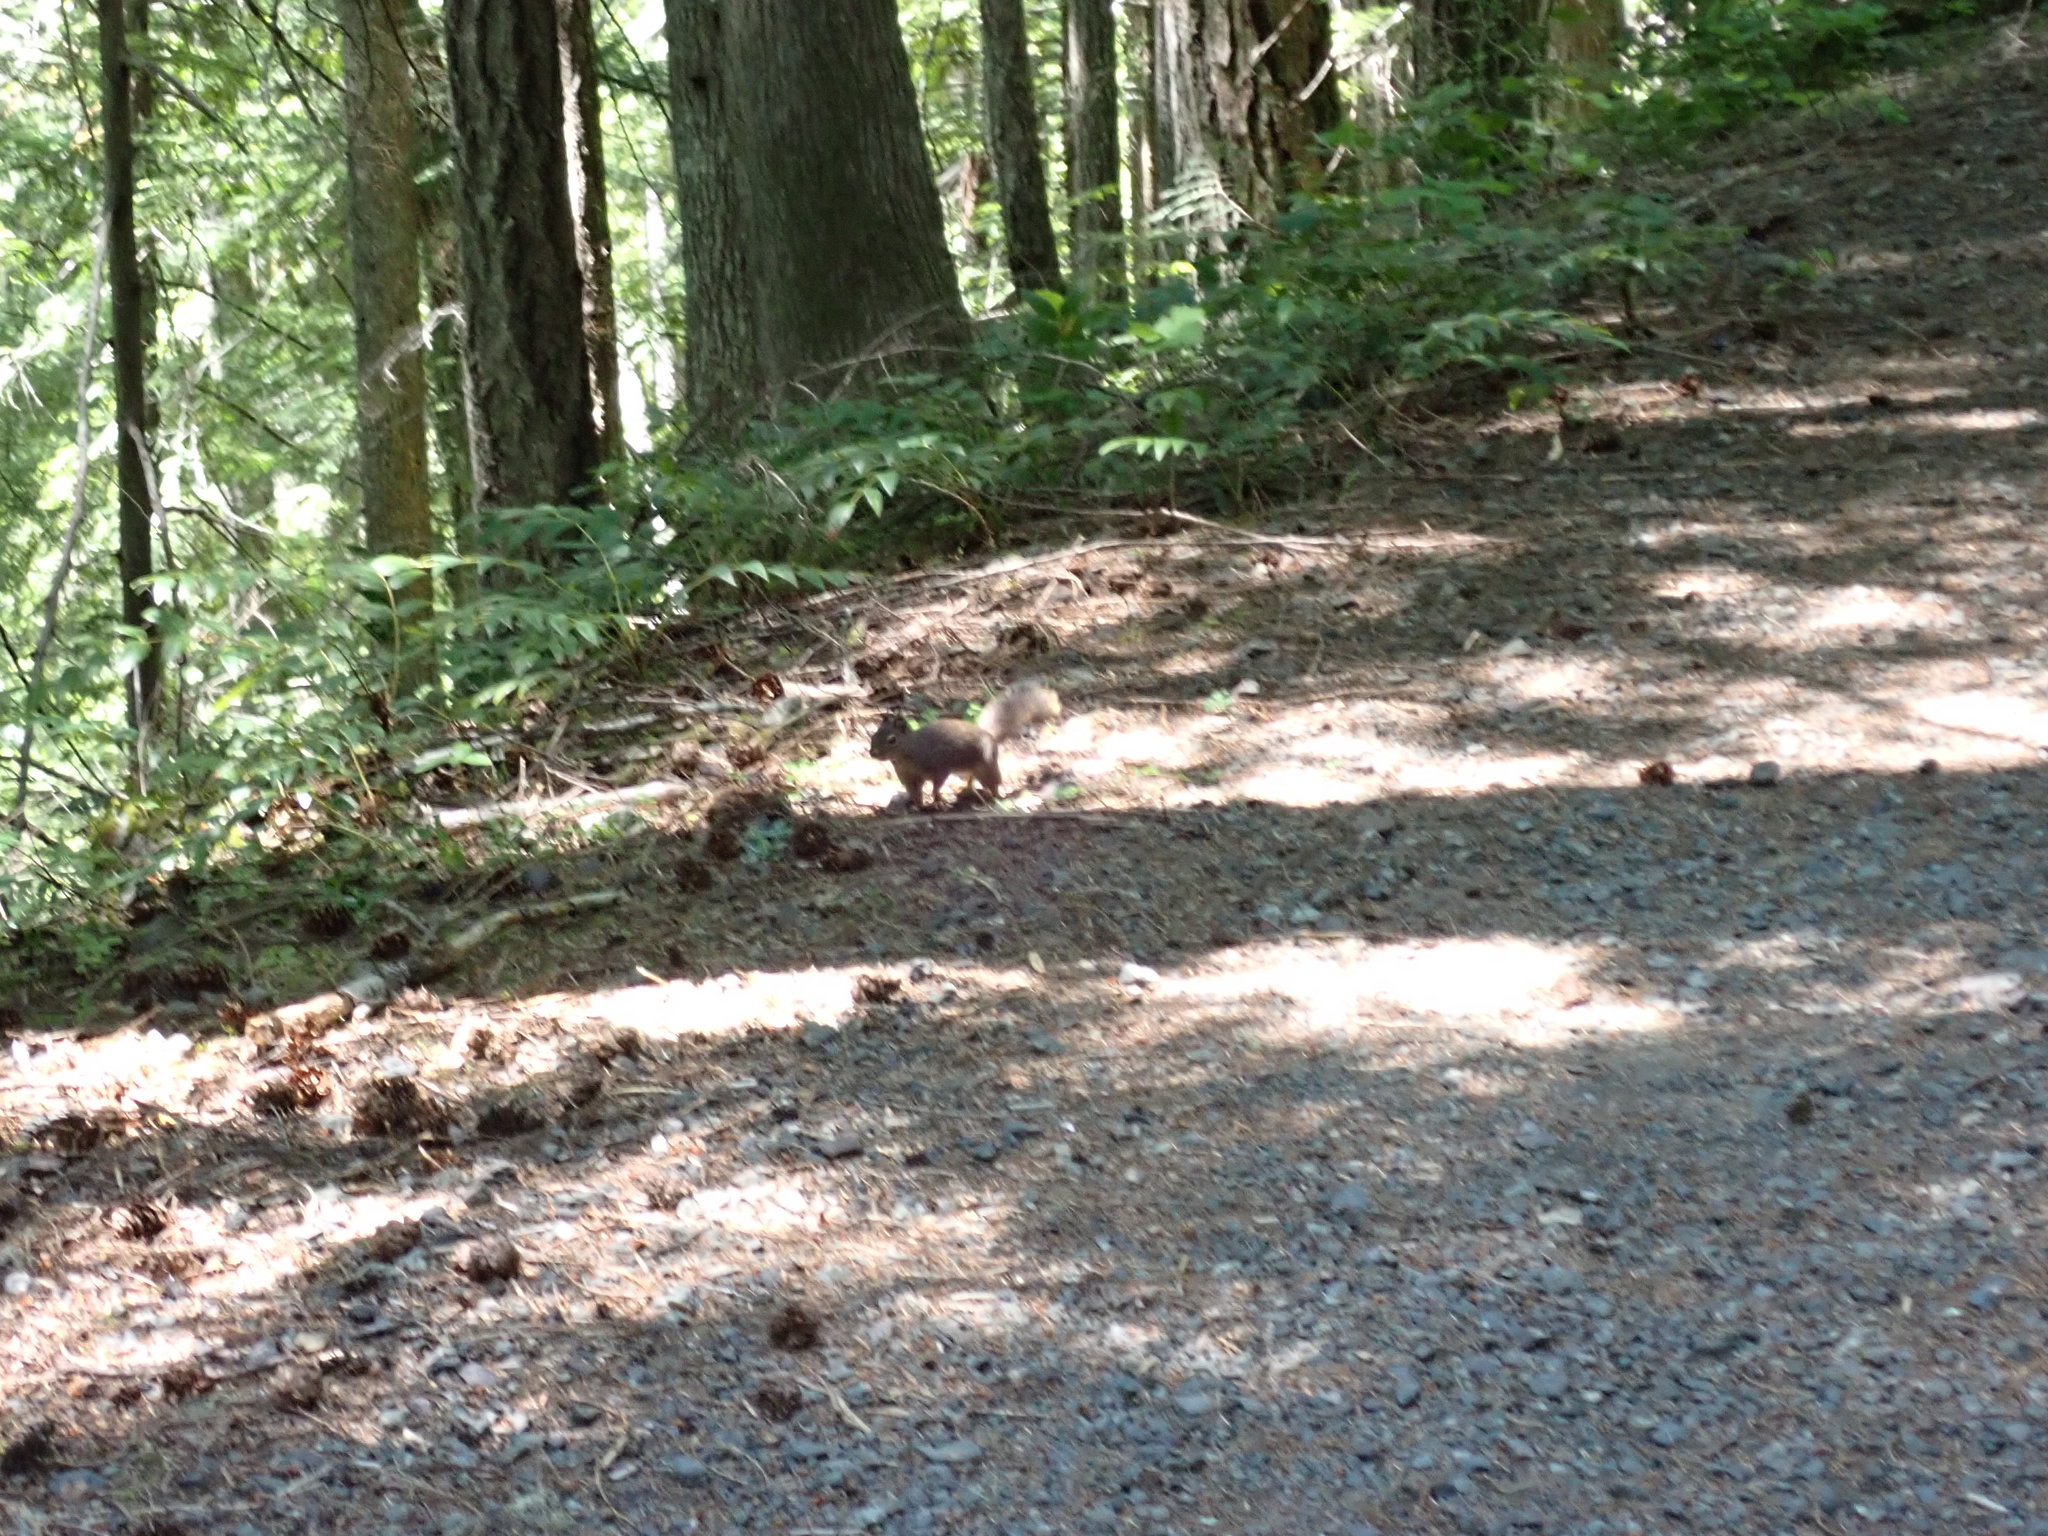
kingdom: Animalia
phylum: Chordata
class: Mammalia
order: Rodentia
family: Sciuridae
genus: Tamiasciurus
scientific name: Tamiasciurus douglasii
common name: Douglas's squirrel
